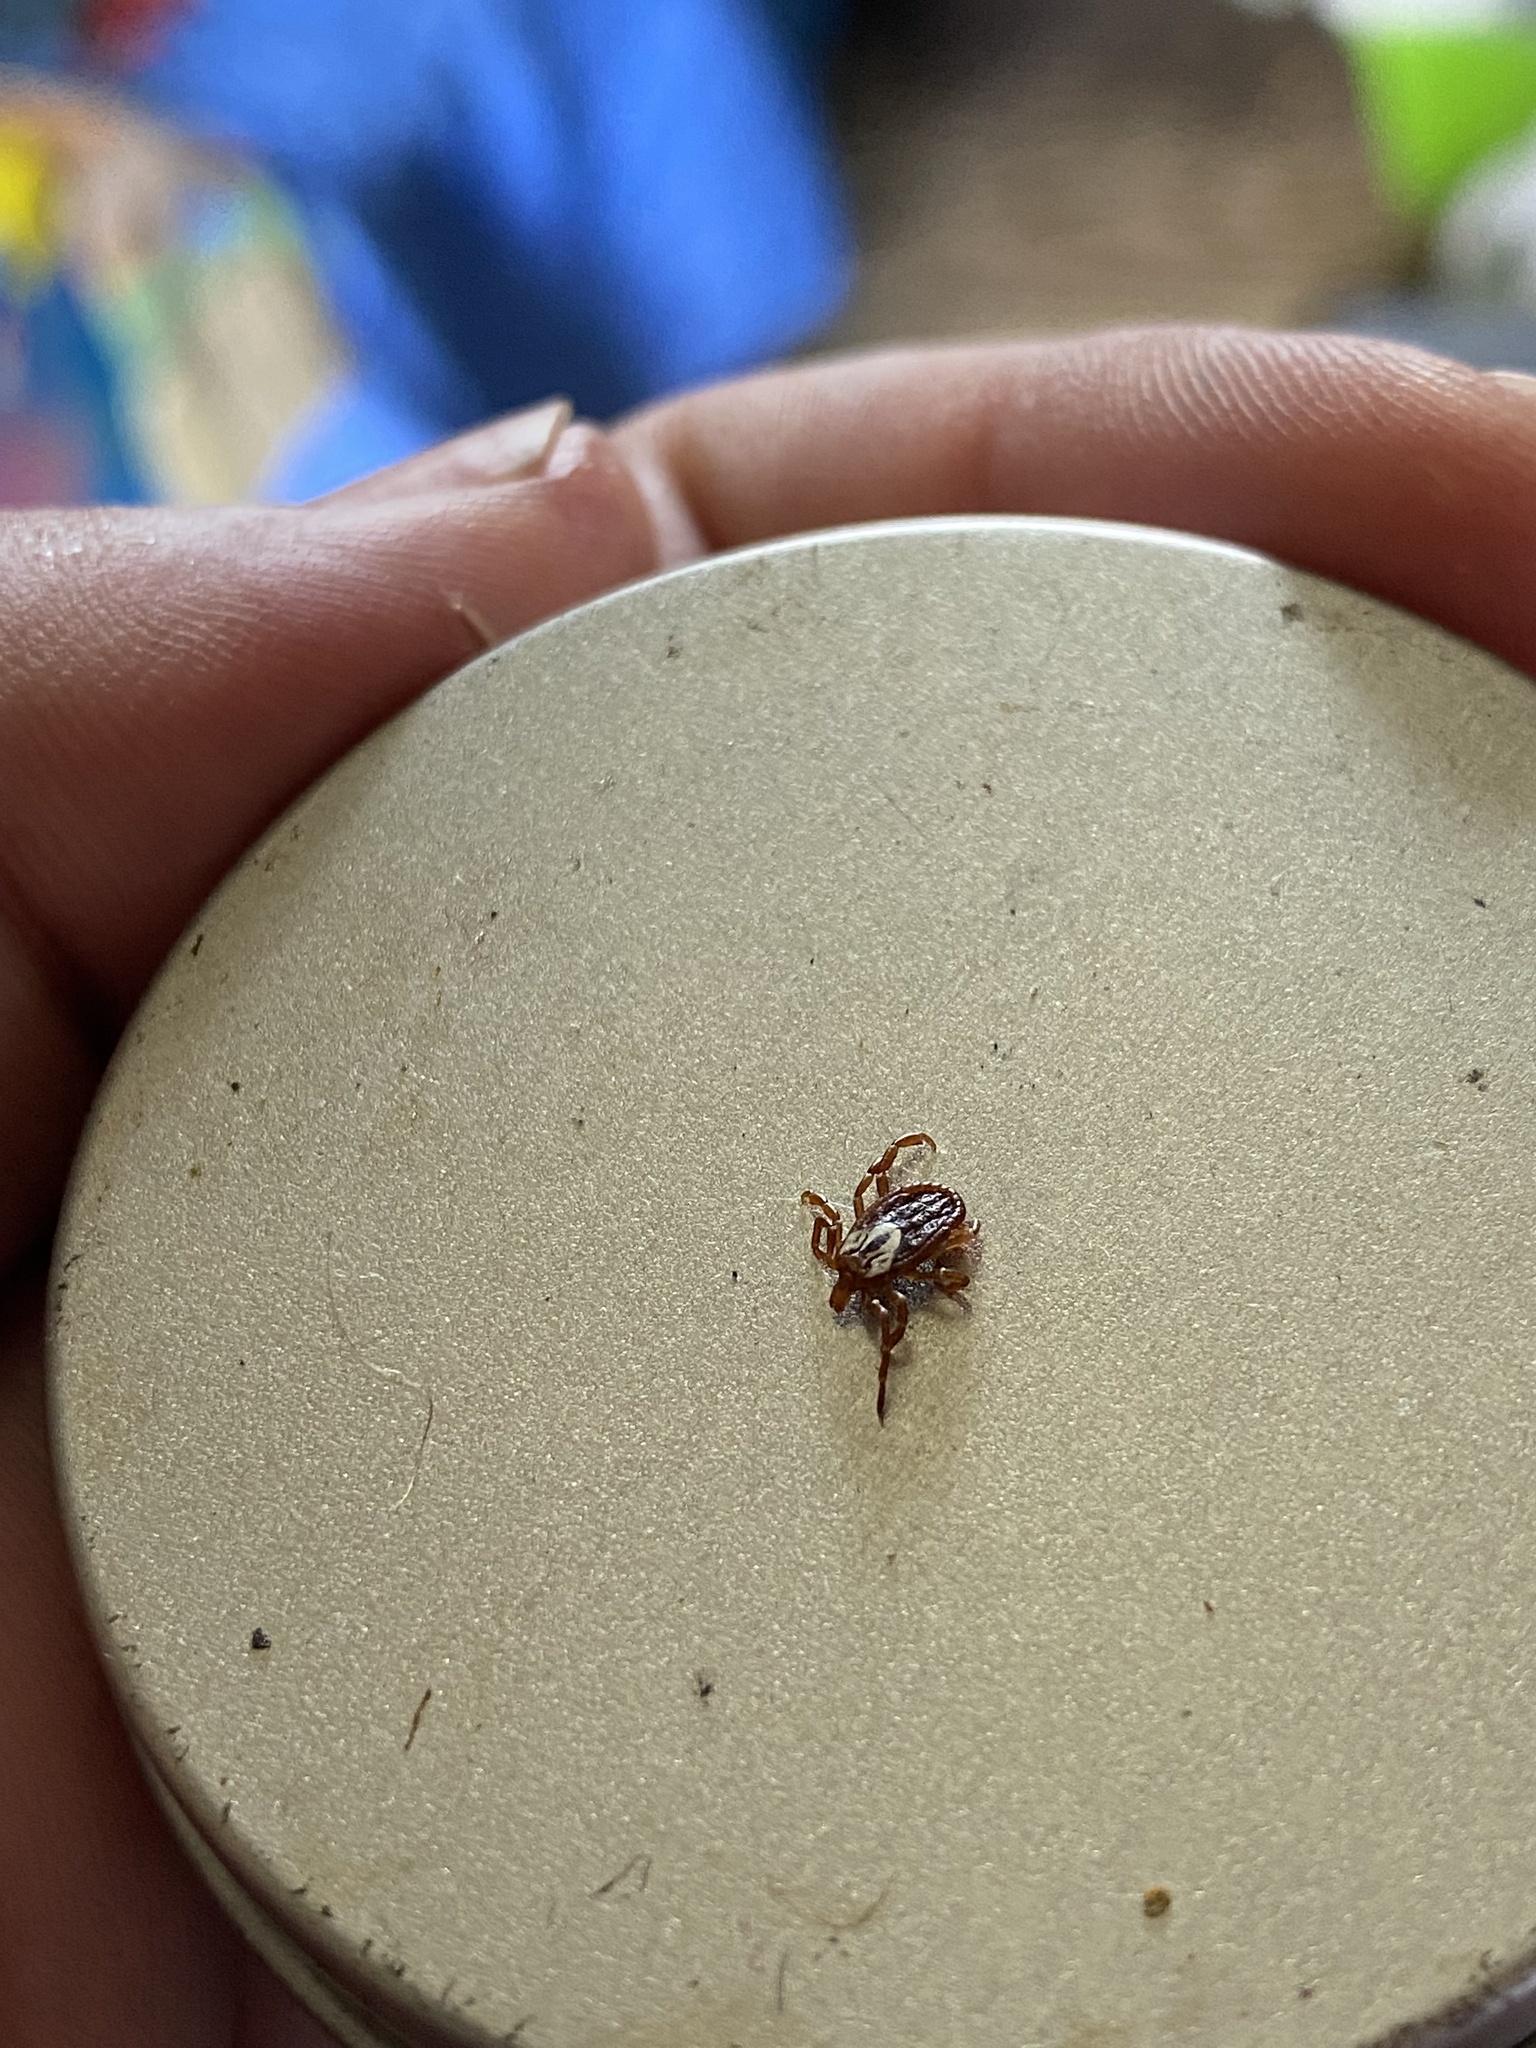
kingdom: Animalia
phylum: Arthropoda
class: Arachnida
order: Ixodida
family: Ixodidae
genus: Amblyomma
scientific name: Amblyomma maculatum
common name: Gulf coast tick
